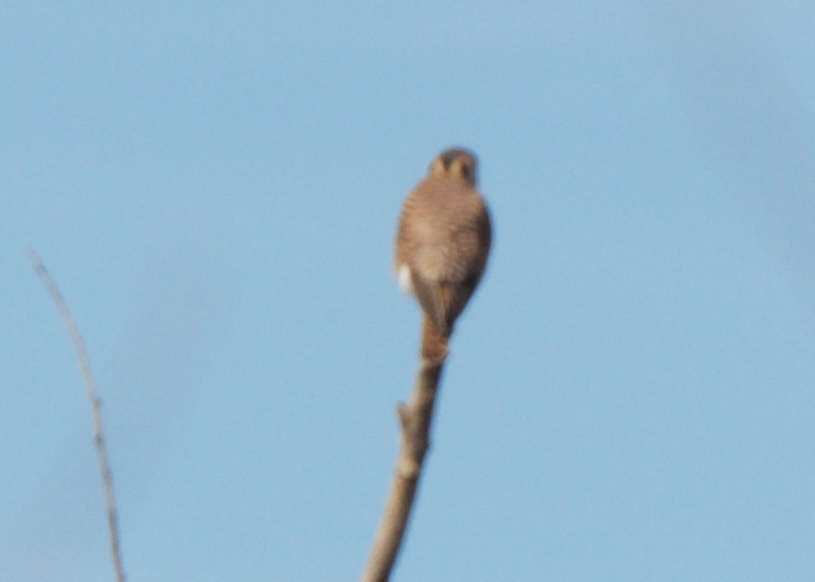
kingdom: Animalia
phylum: Chordata
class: Aves
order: Falconiformes
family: Falconidae
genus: Falco
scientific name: Falco sparverius
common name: American kestrel
